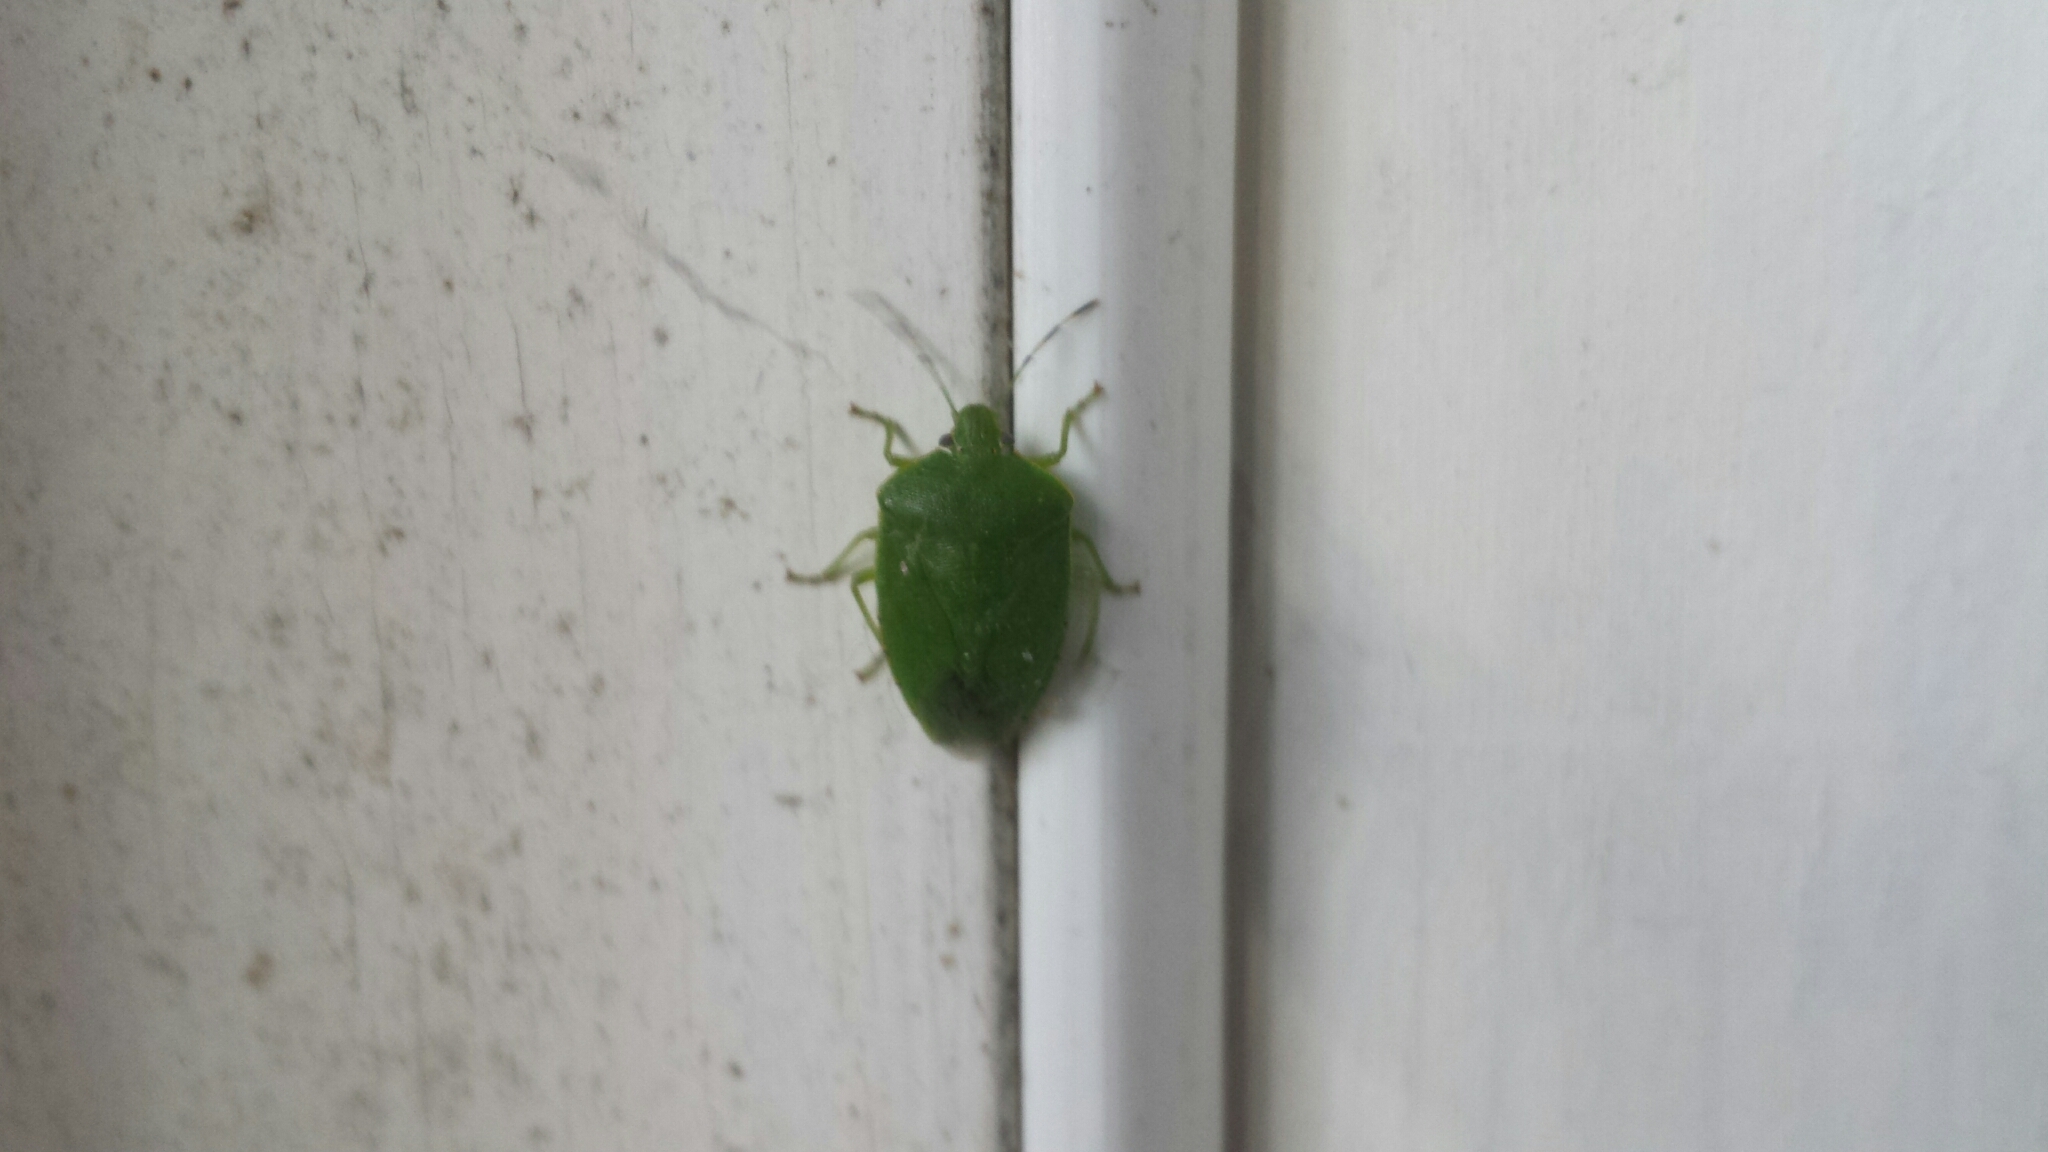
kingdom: Animalia
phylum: Arthropoda
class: Insecta
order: Hemiptera
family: Pentatomidae
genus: Chinavia
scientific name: Chinavia hilaris
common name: Green stink bug
